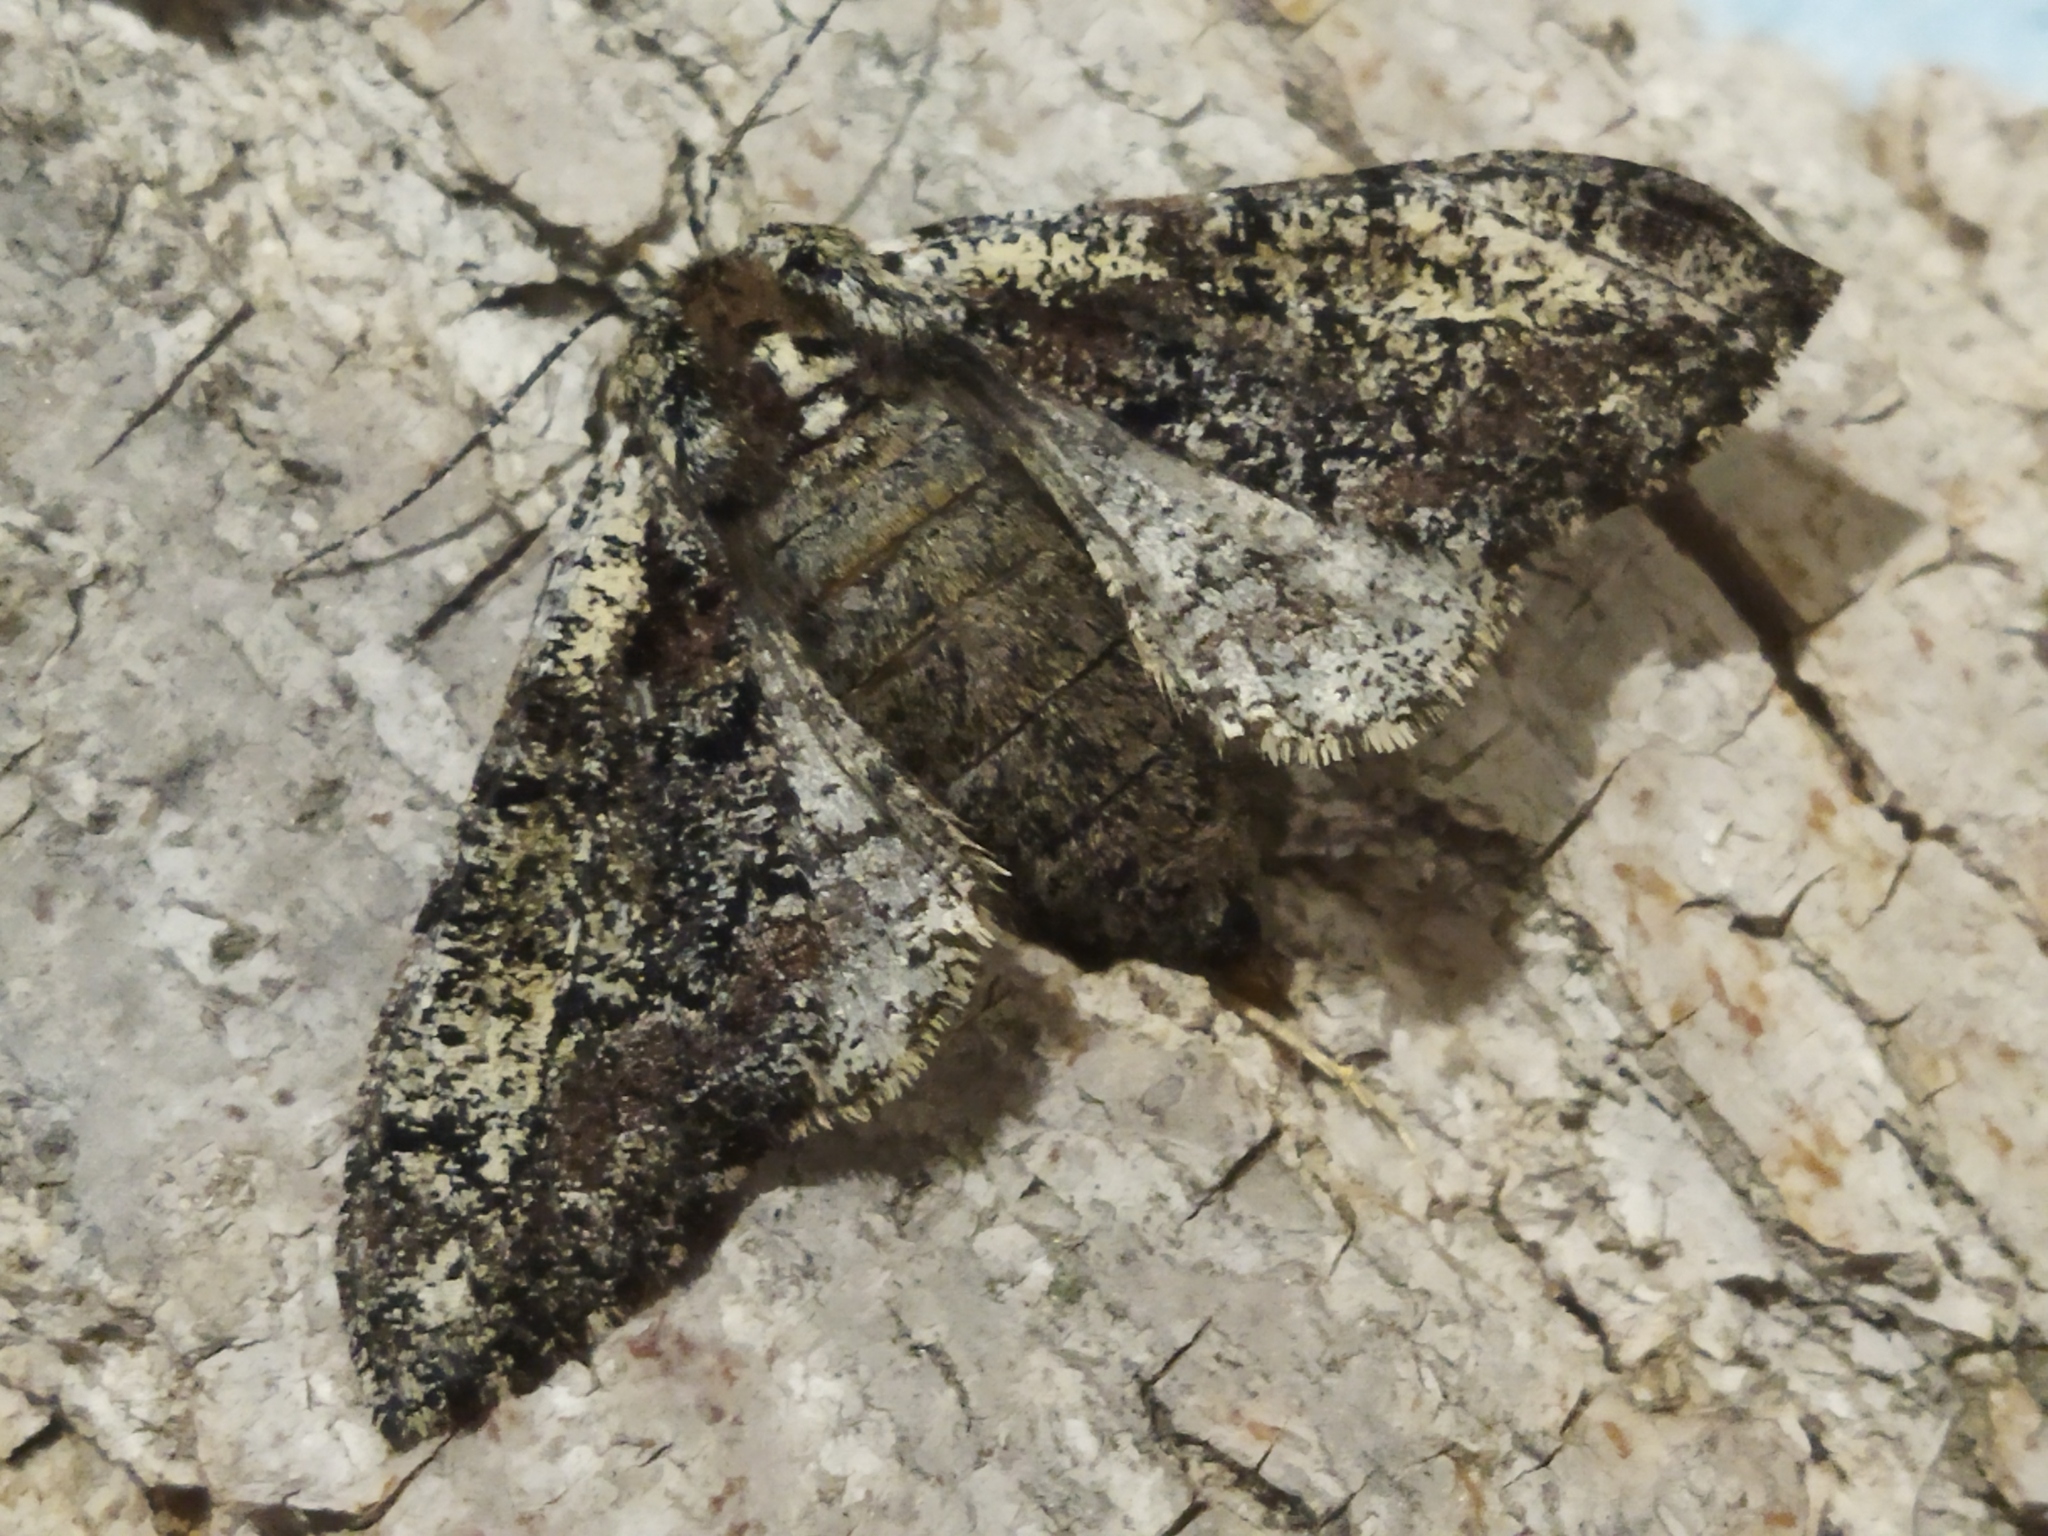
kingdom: Animalia
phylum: Arthropoda
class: Insecta
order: Lepidoptera
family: Geometridae
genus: Biston
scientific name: Biston strataria
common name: Oak beauty
